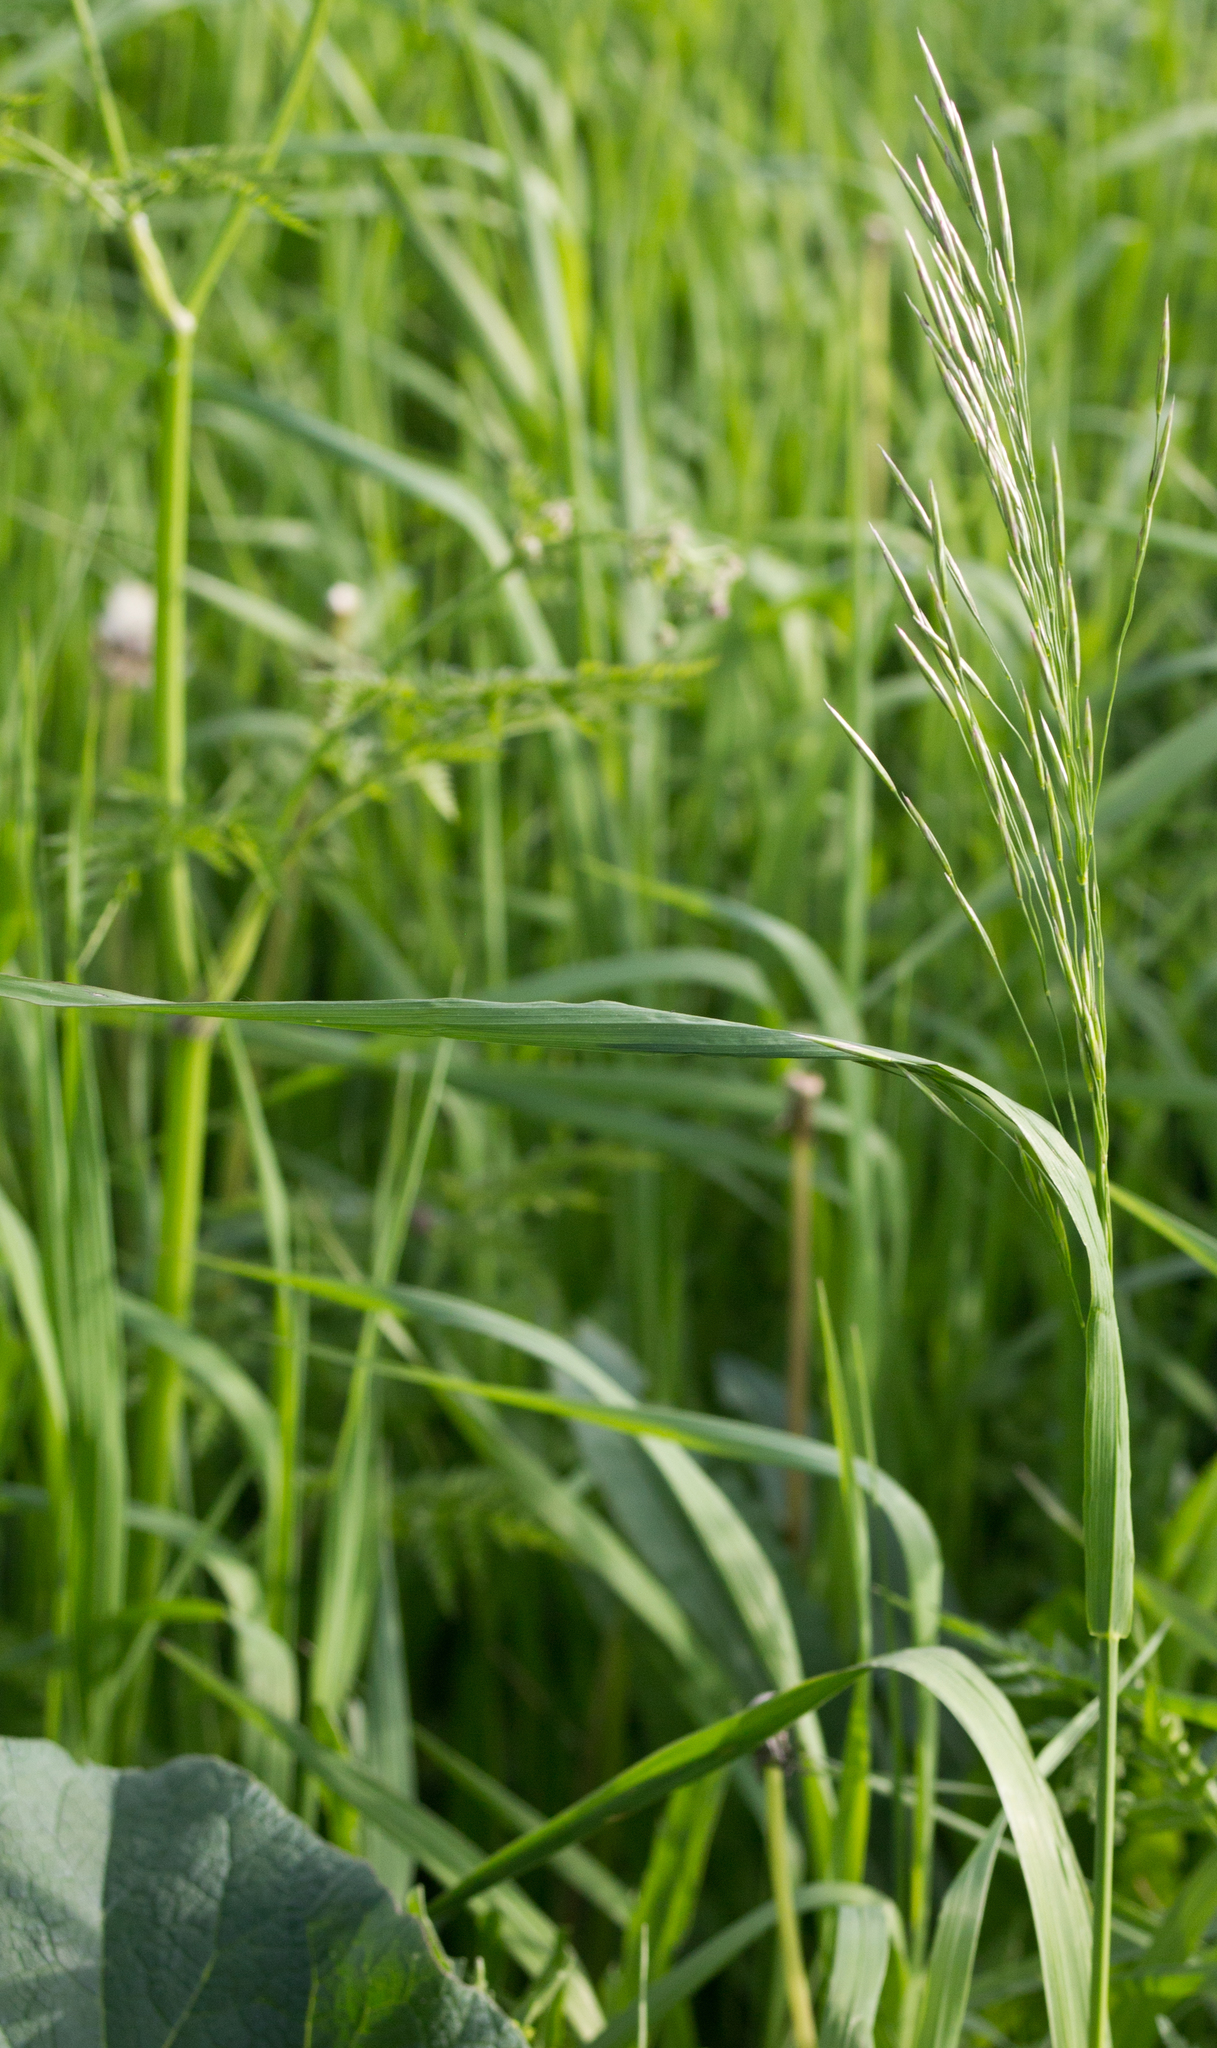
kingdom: Plantae
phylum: Tracheophyta
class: Liliopsida
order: Poales
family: Poaceae
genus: Bromus
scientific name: Bromus inermis
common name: Smooth brome
